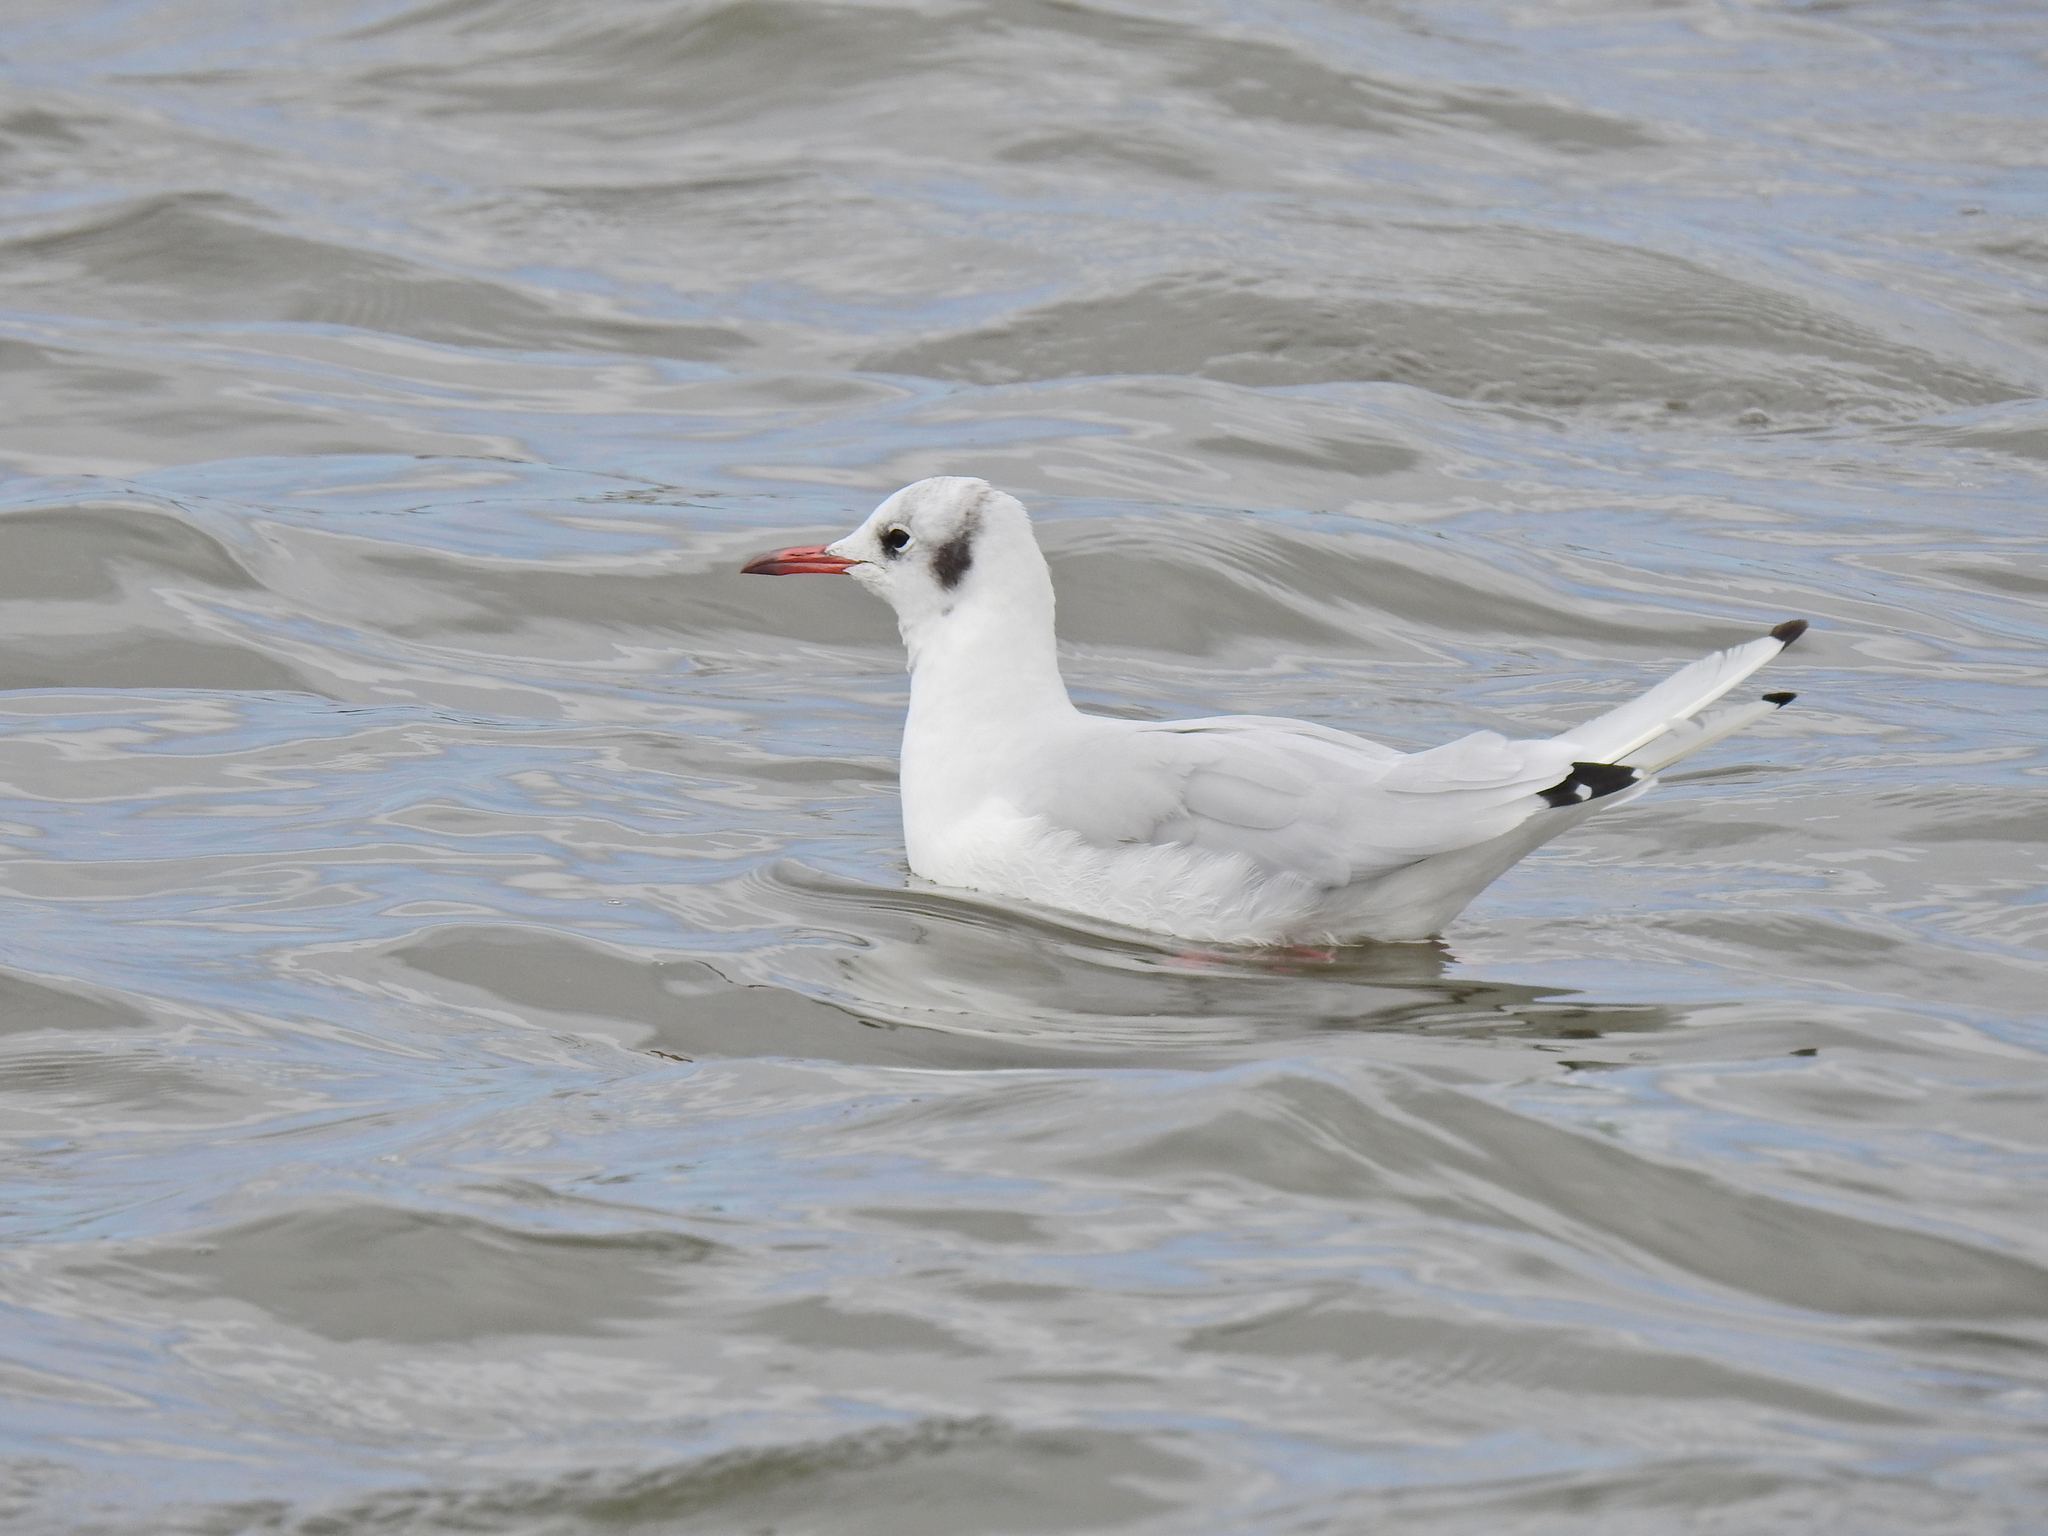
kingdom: Animalia
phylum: Chordata
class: Aves
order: Charadriiformes
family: Laridae
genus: Chroicocephalus
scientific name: Chroicocephalus ridibundus
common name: Black-headed gull
